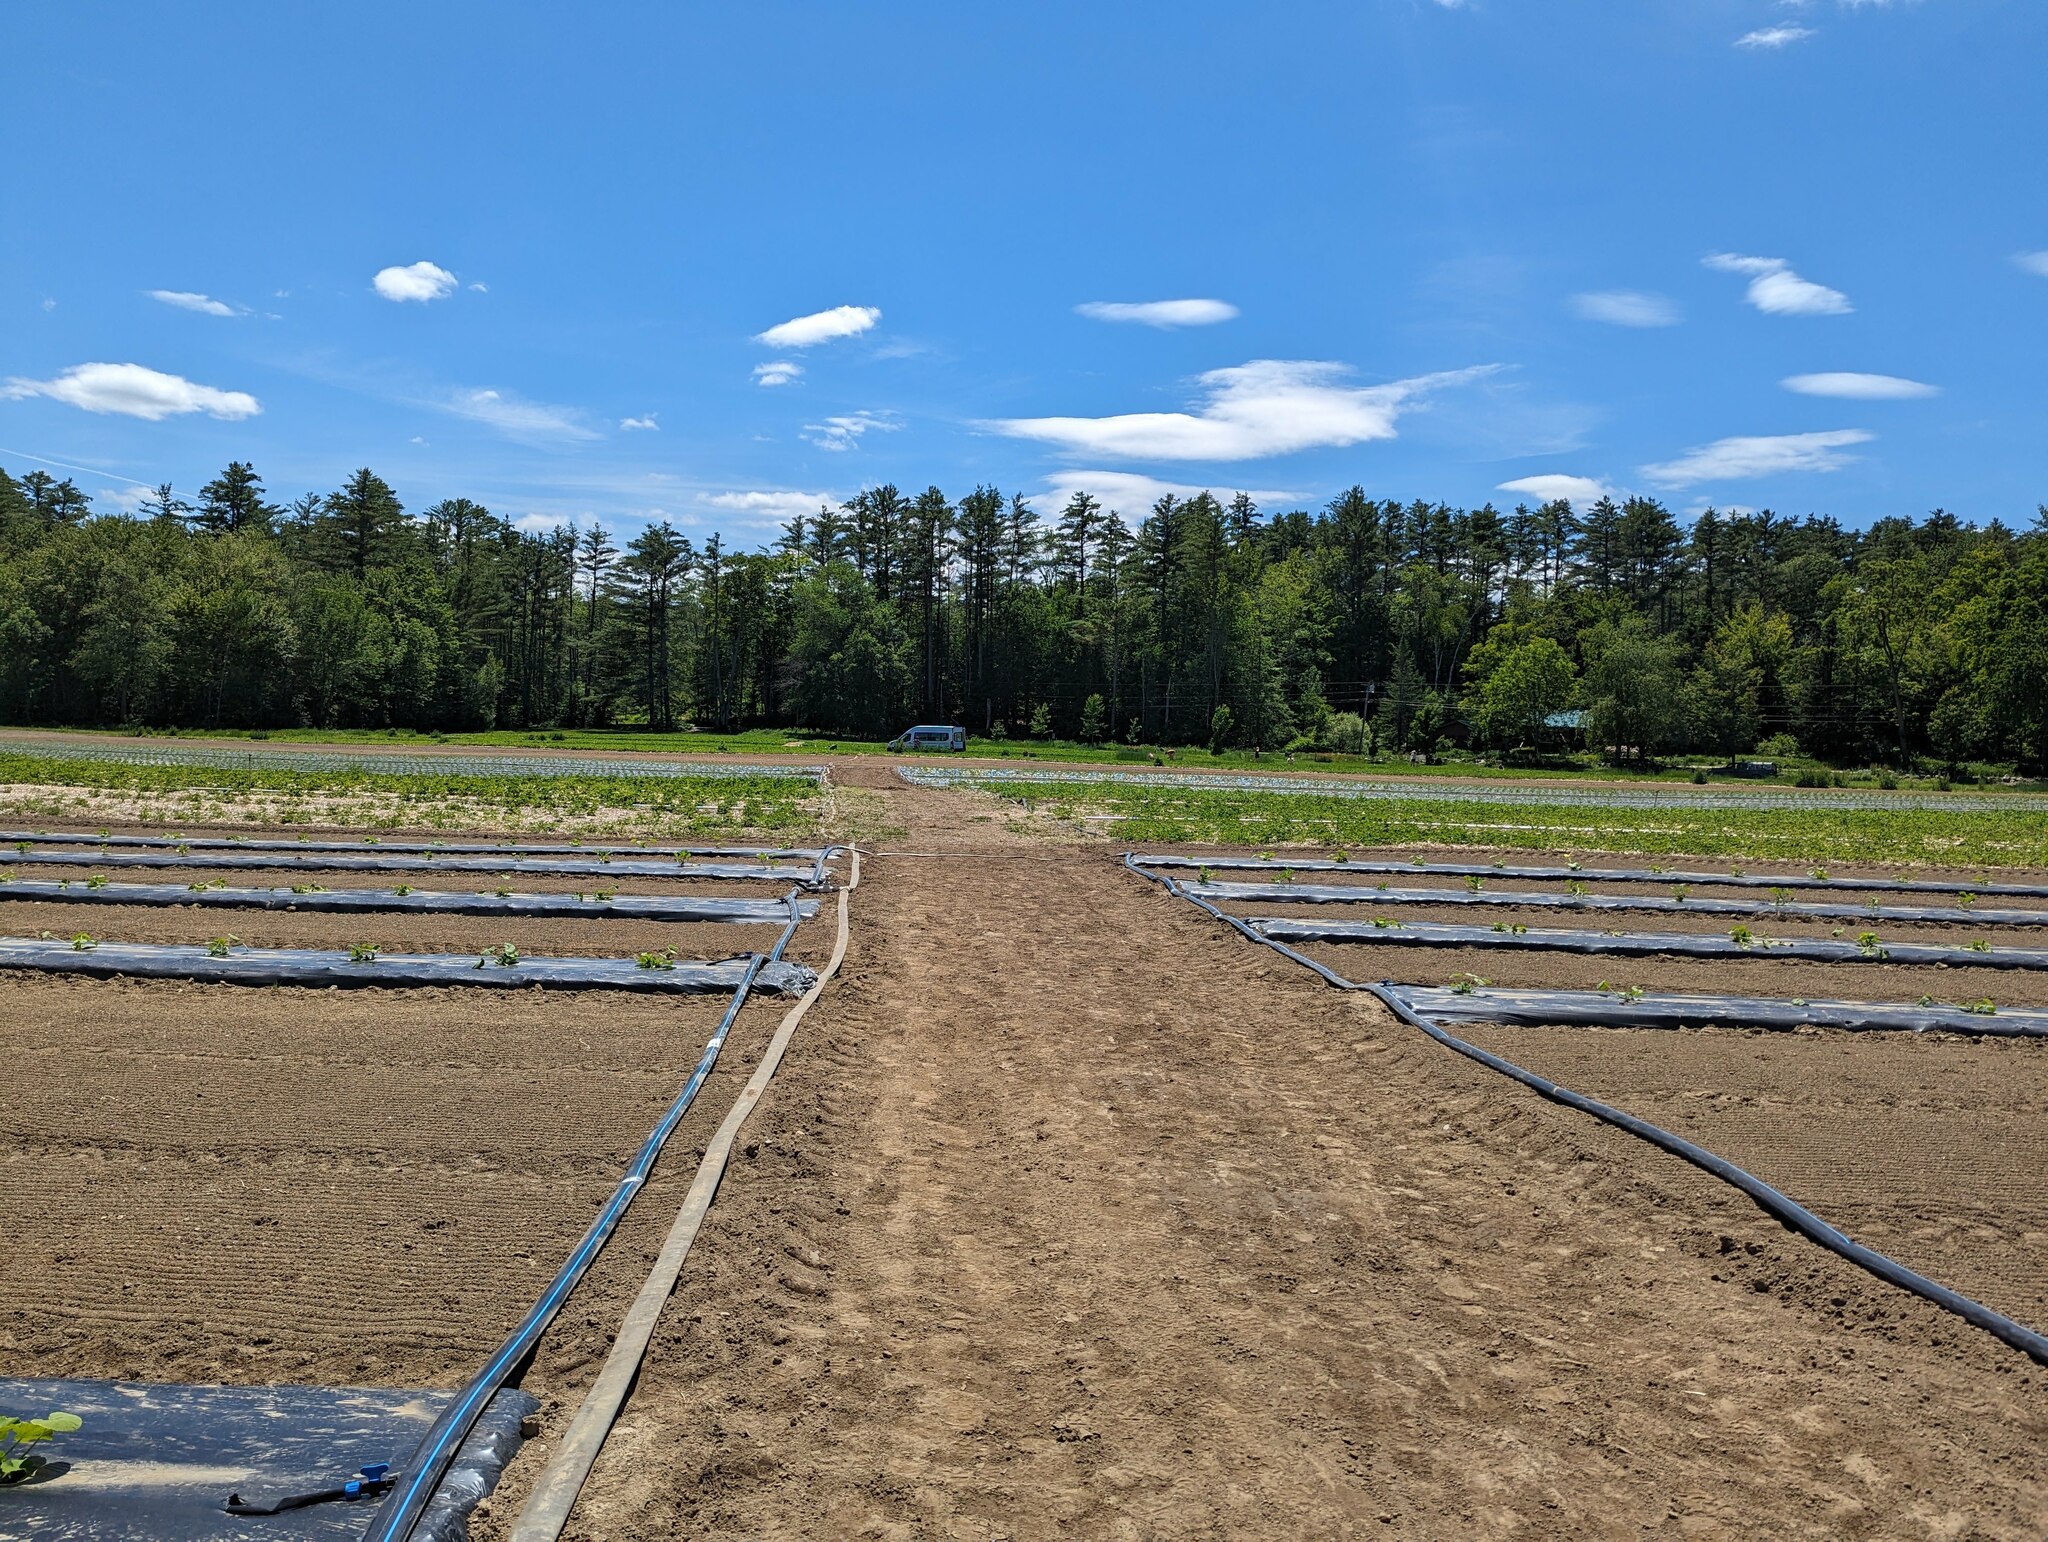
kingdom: Plantae
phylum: Tracheophyta
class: Pinopsida
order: Pinales
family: Pinaceae
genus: Pinus
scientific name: Pinus strobus
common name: Weymouth pine
